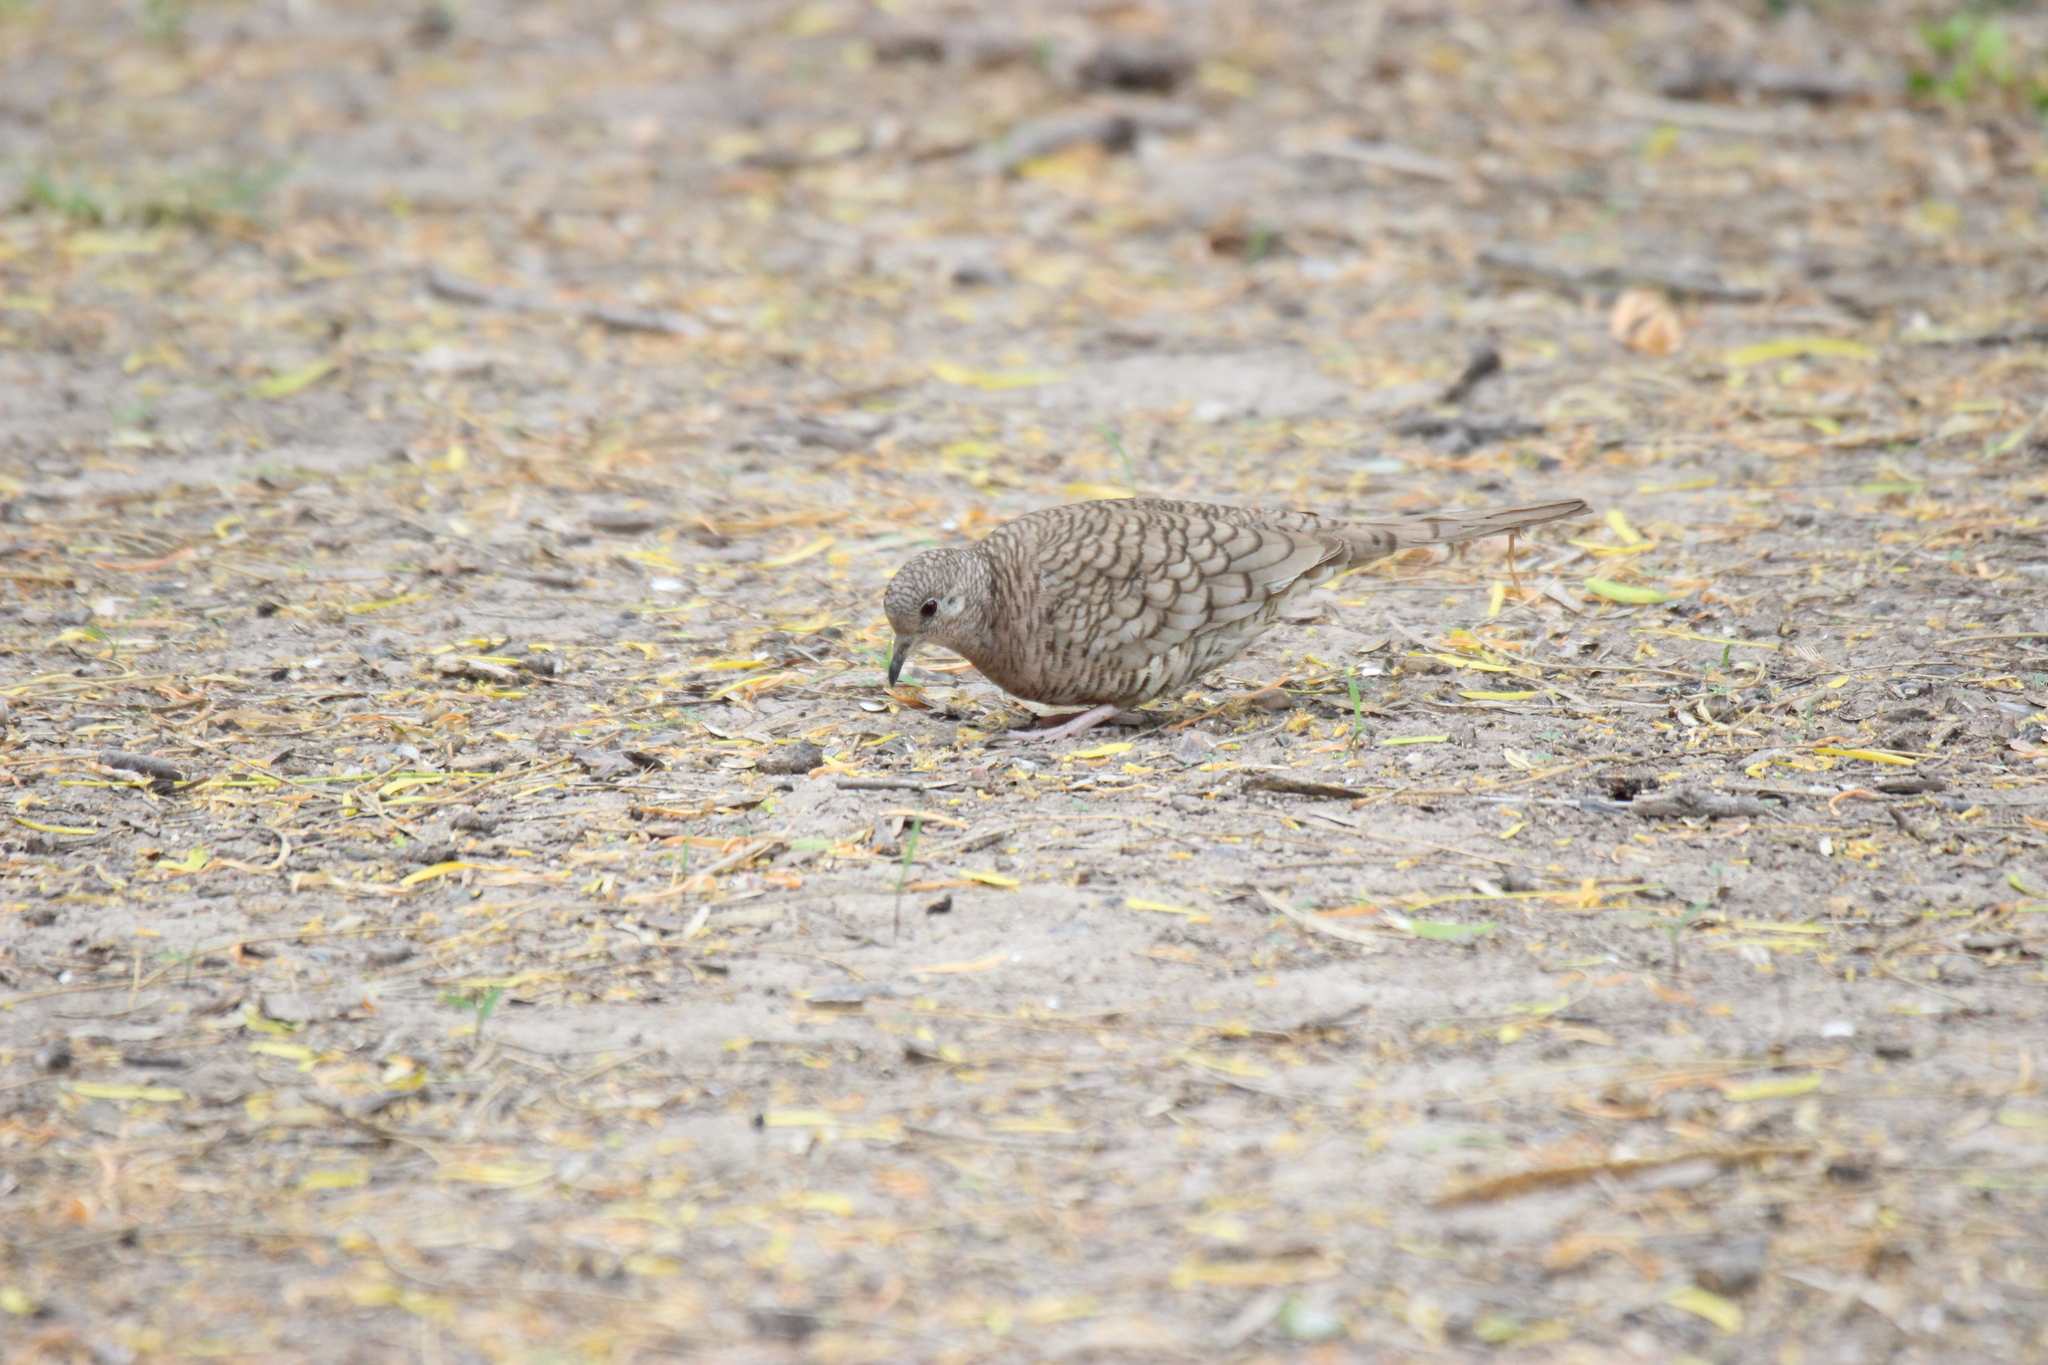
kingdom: Animalia
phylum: Chordata
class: Aves
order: Columbiformes
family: Columbidae
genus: Columbina
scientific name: Columbina inca
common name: Inca dove
